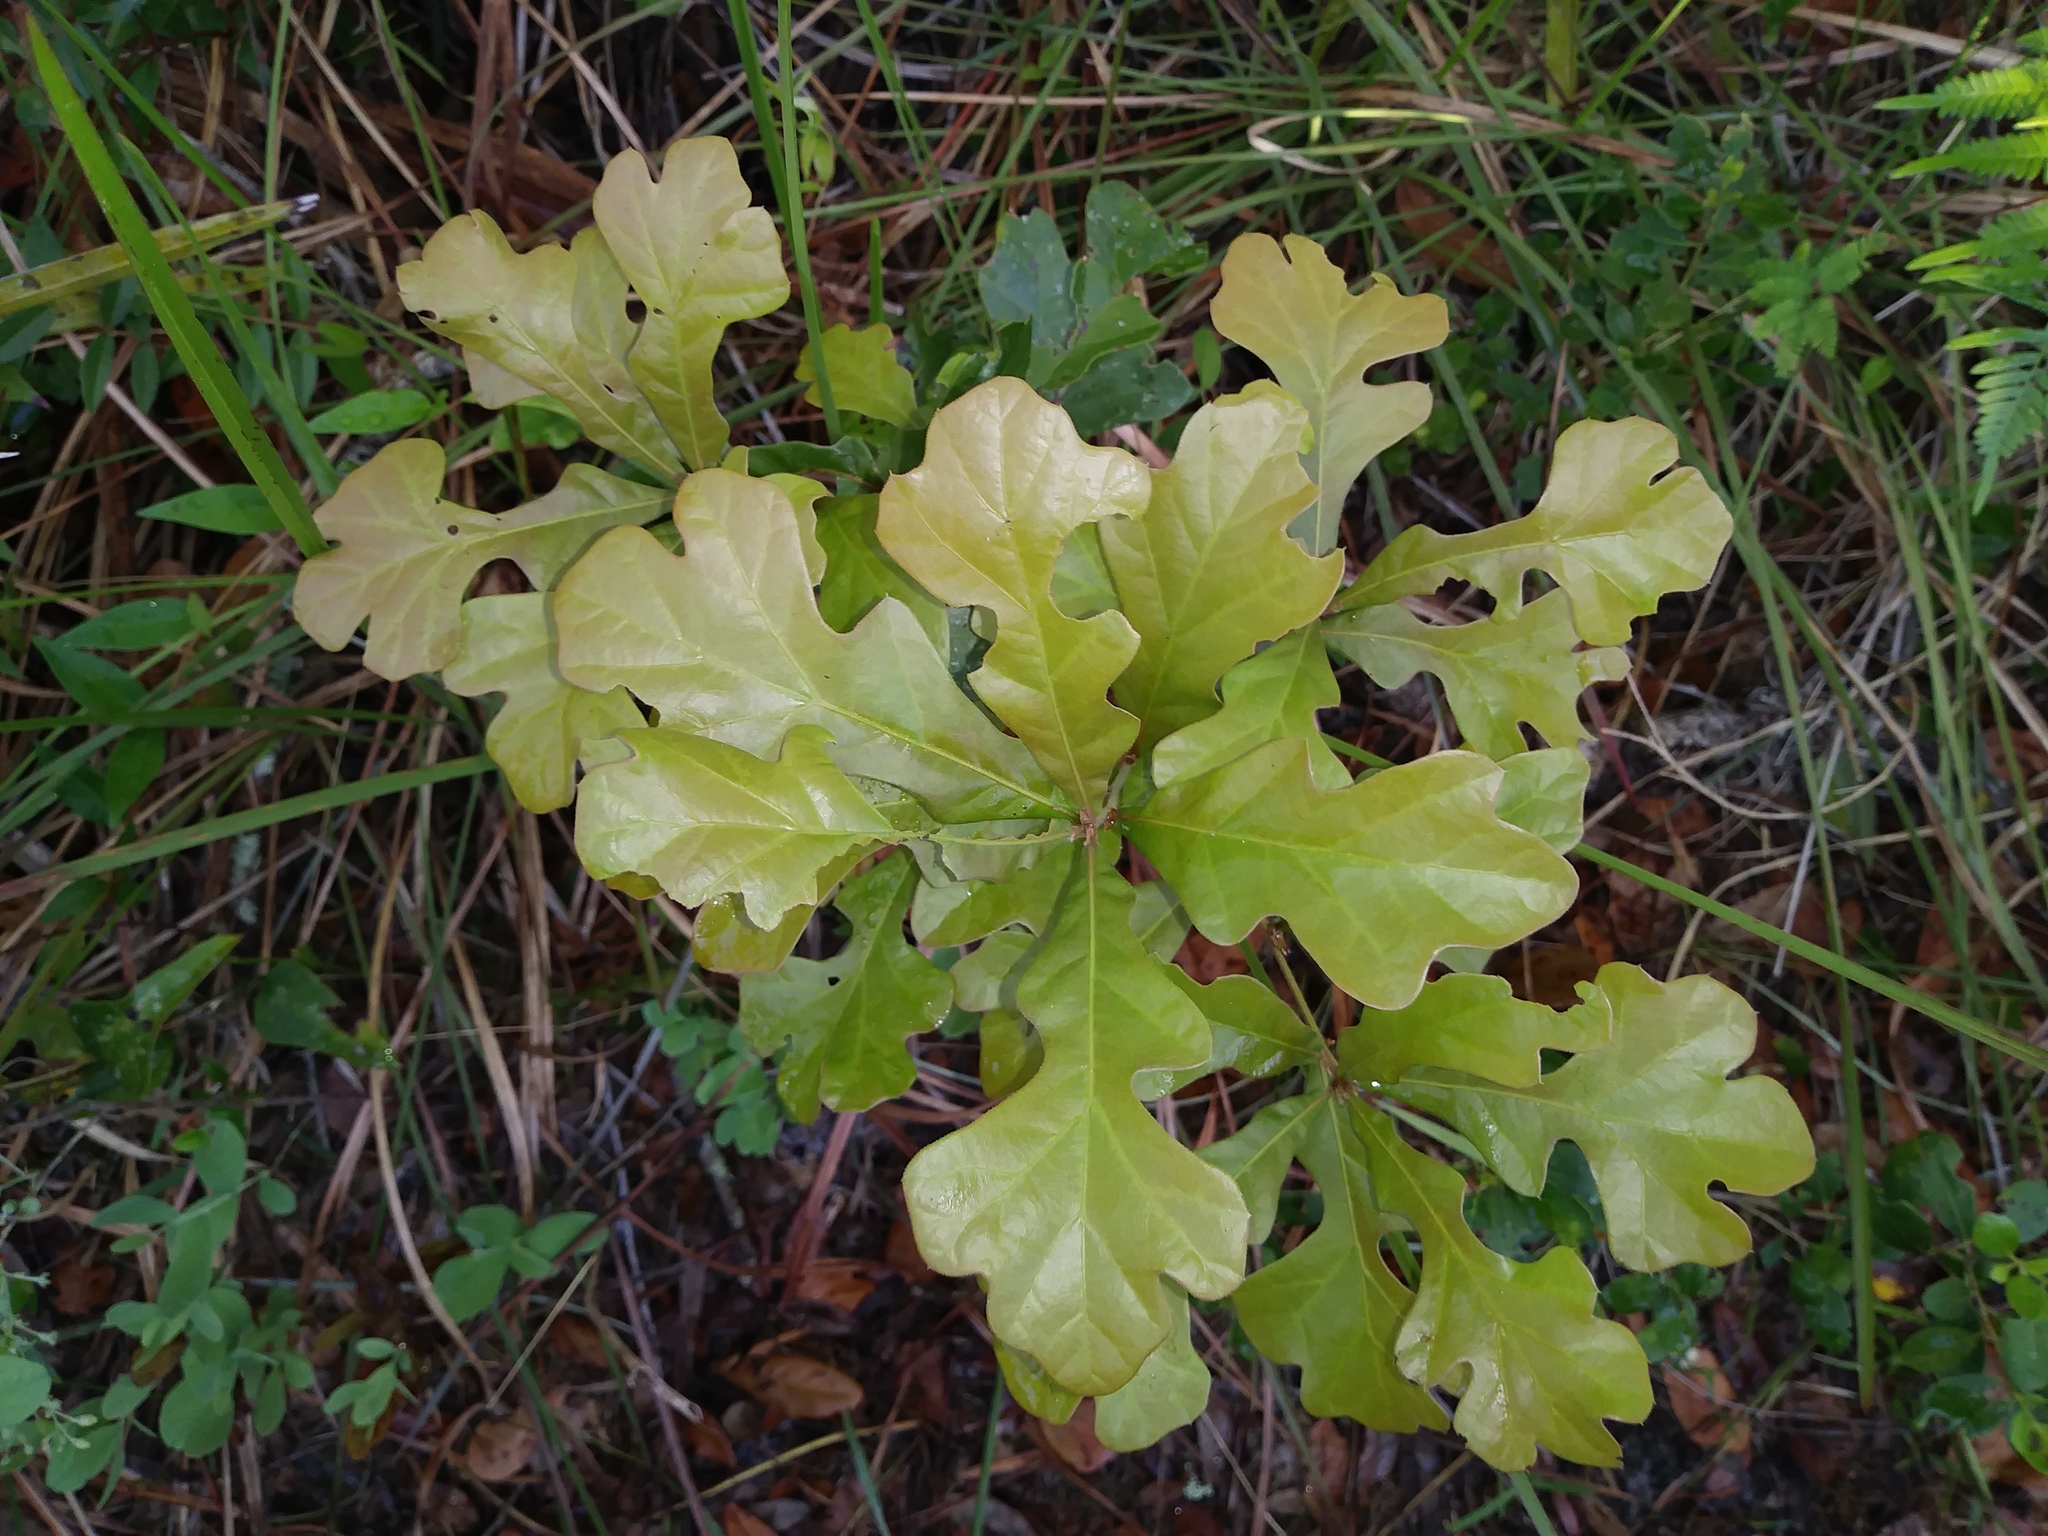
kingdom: Plantae
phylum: Tracheophyta
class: Magnoliopsida
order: Fagales
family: Fagaceae
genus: Quercus
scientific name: Quercus nigra
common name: Water oak
